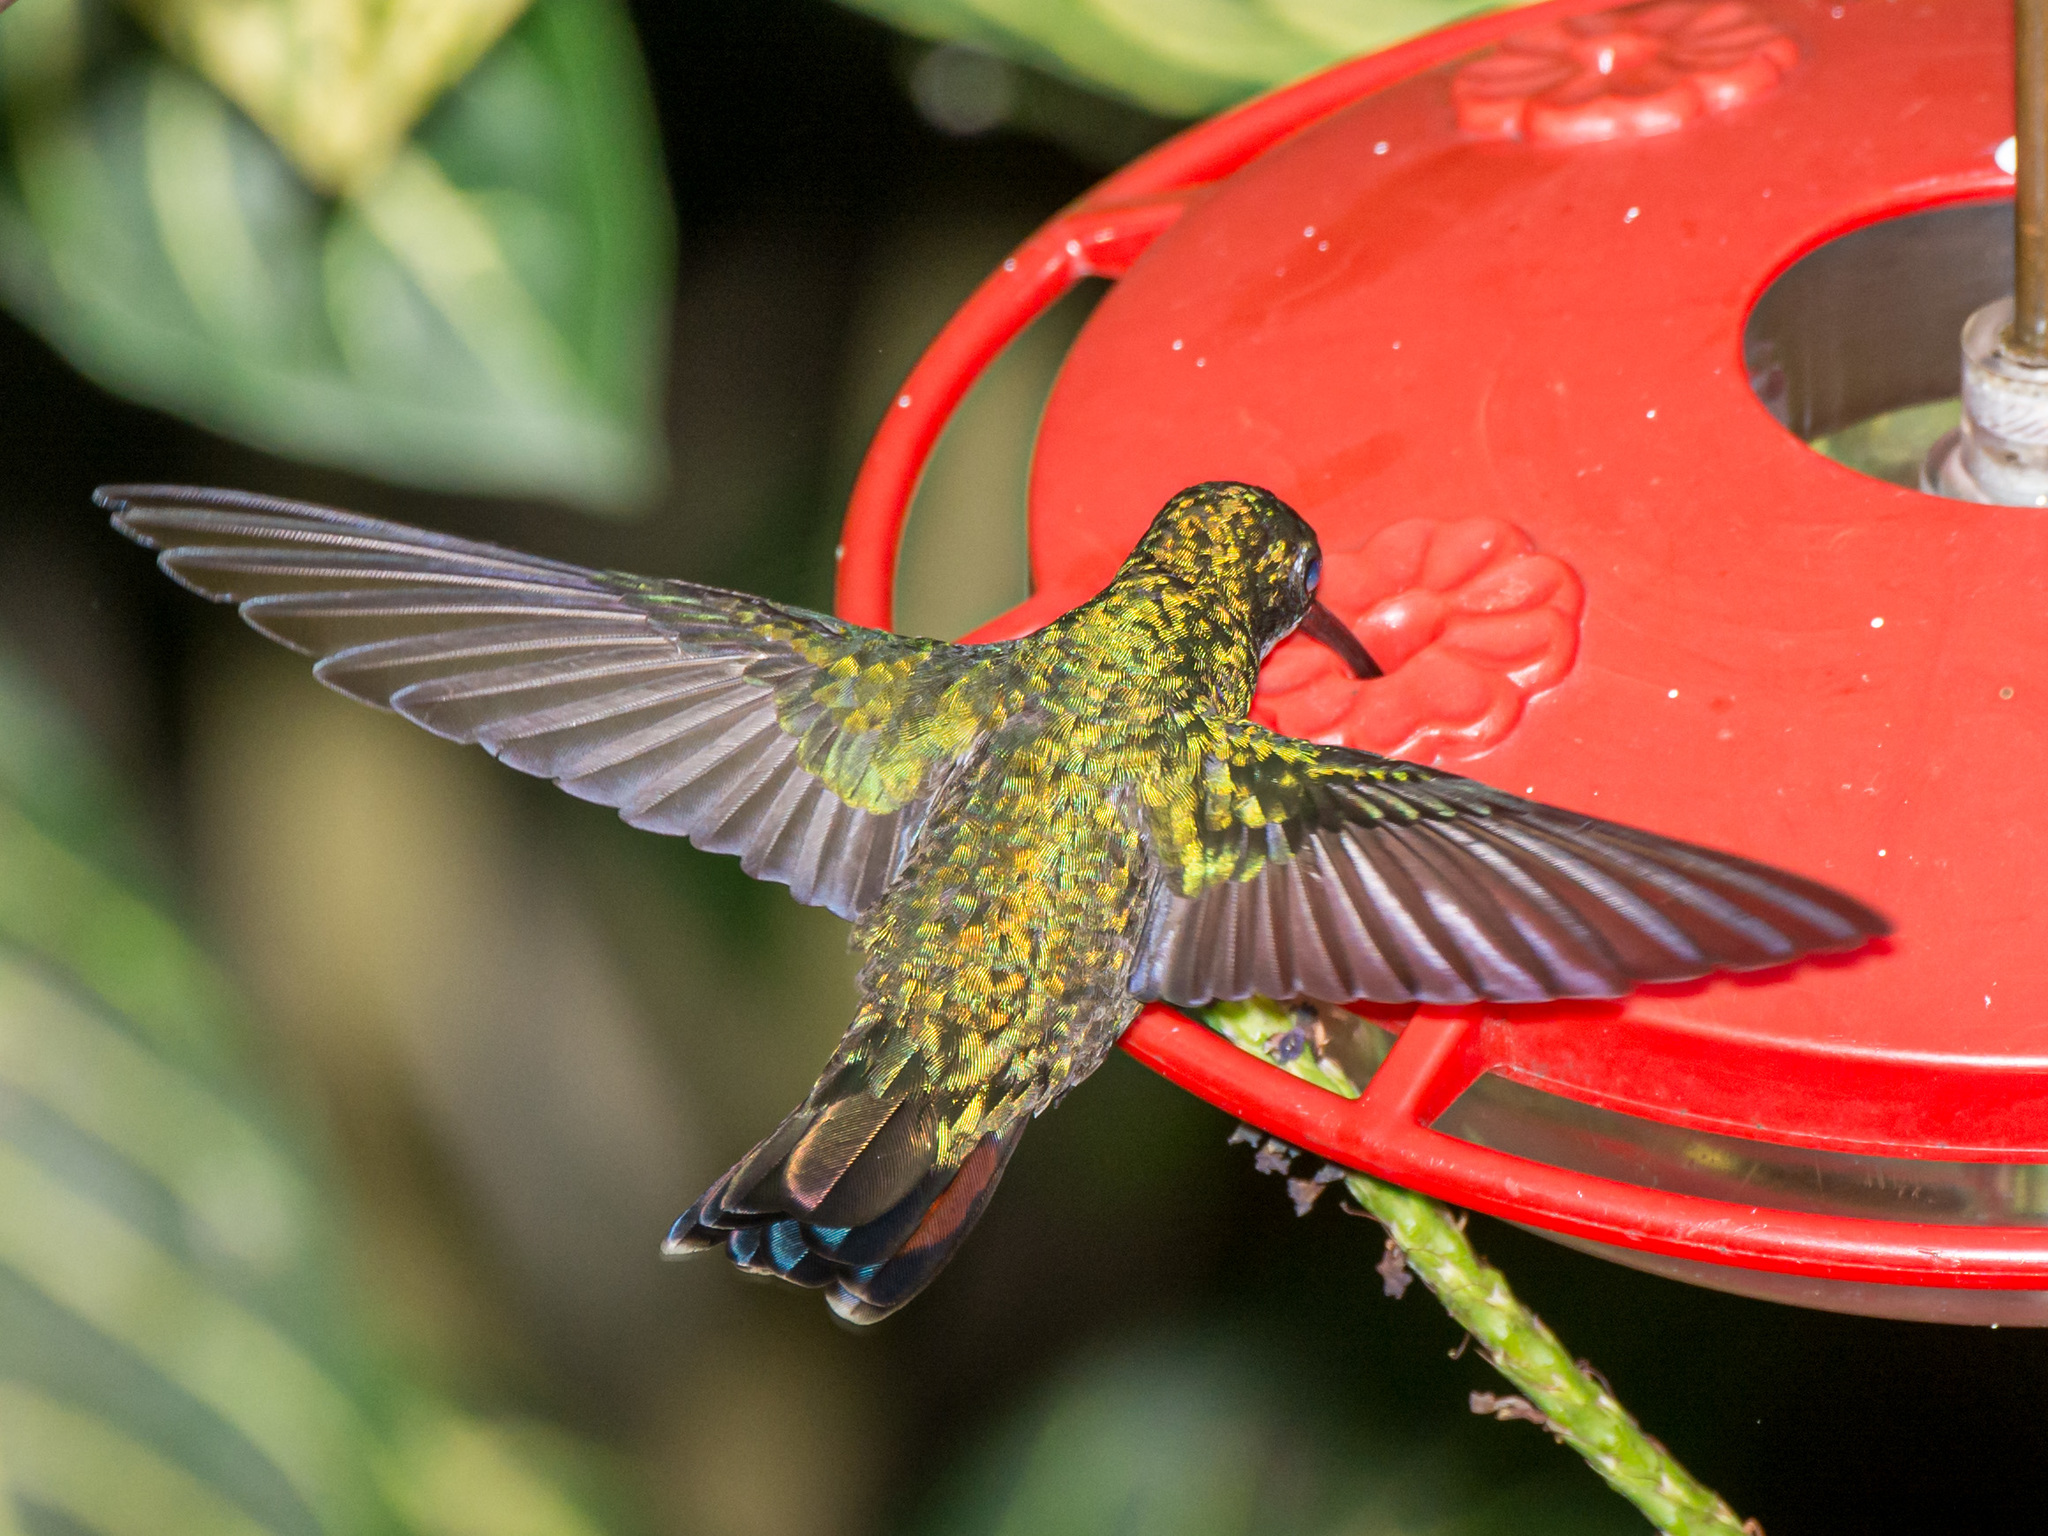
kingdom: Animalia
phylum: Chordata
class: Aves
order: Apodiformes
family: Trochilidae
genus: Saucerottia
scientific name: Saucerottia tobaci
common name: Copper-rumped hummingbird
